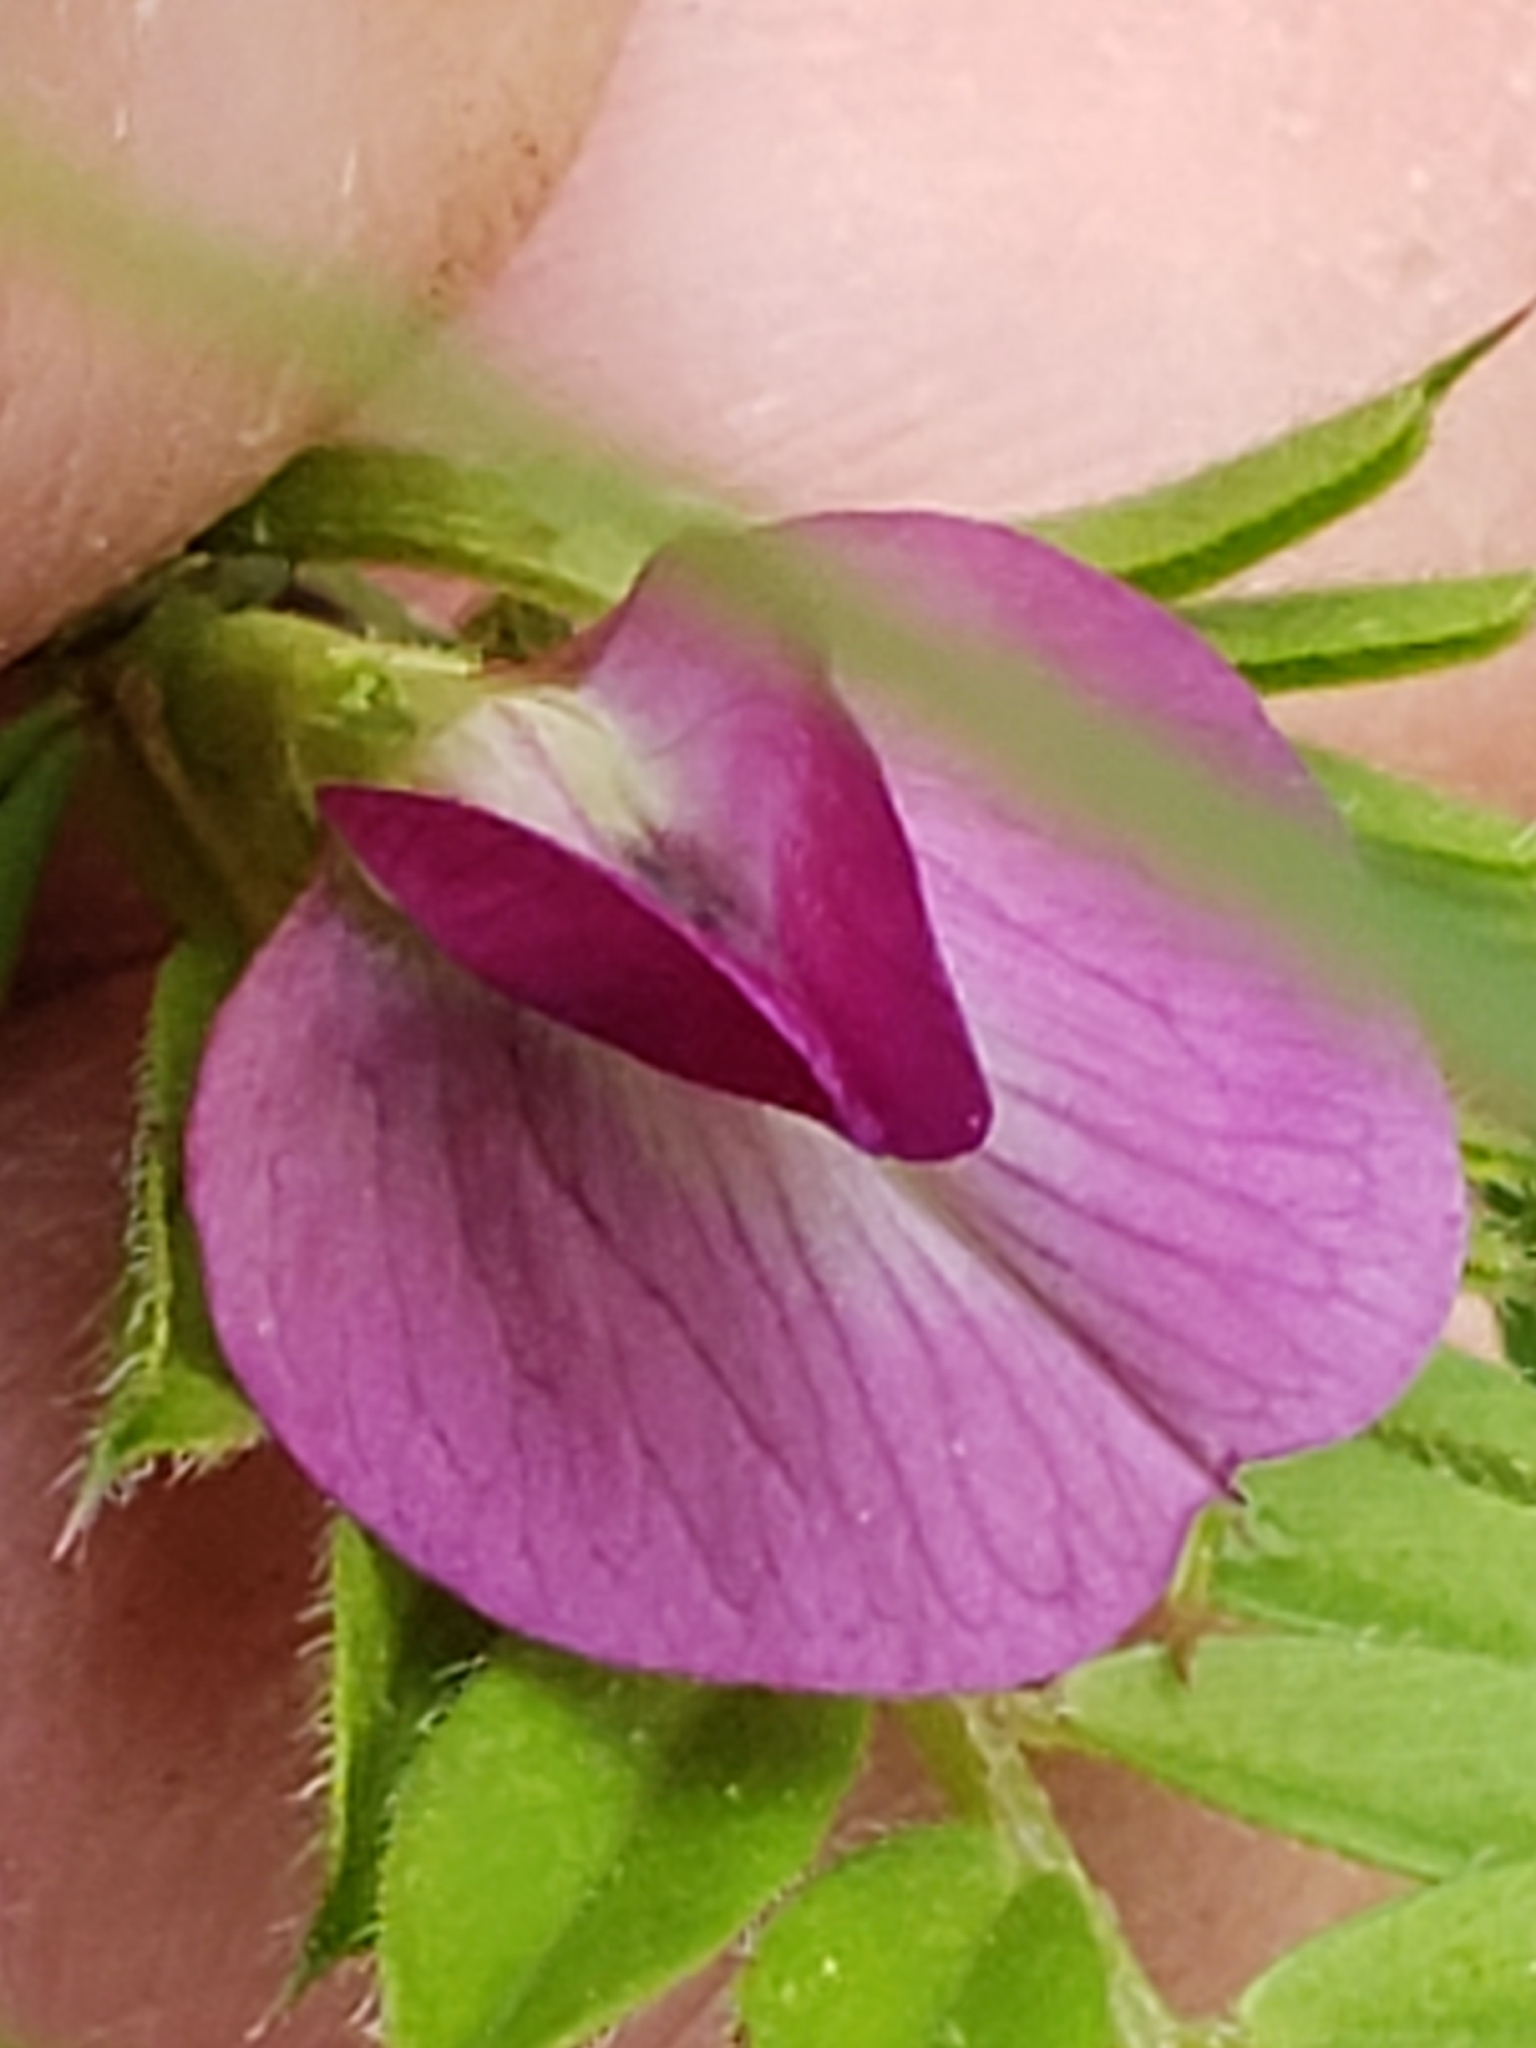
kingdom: Plantae
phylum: Tracheophyta
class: Magnoliopsida
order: Fabales
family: Fabaceae
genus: Vicia
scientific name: Vicia sativa
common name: Garden vetch
